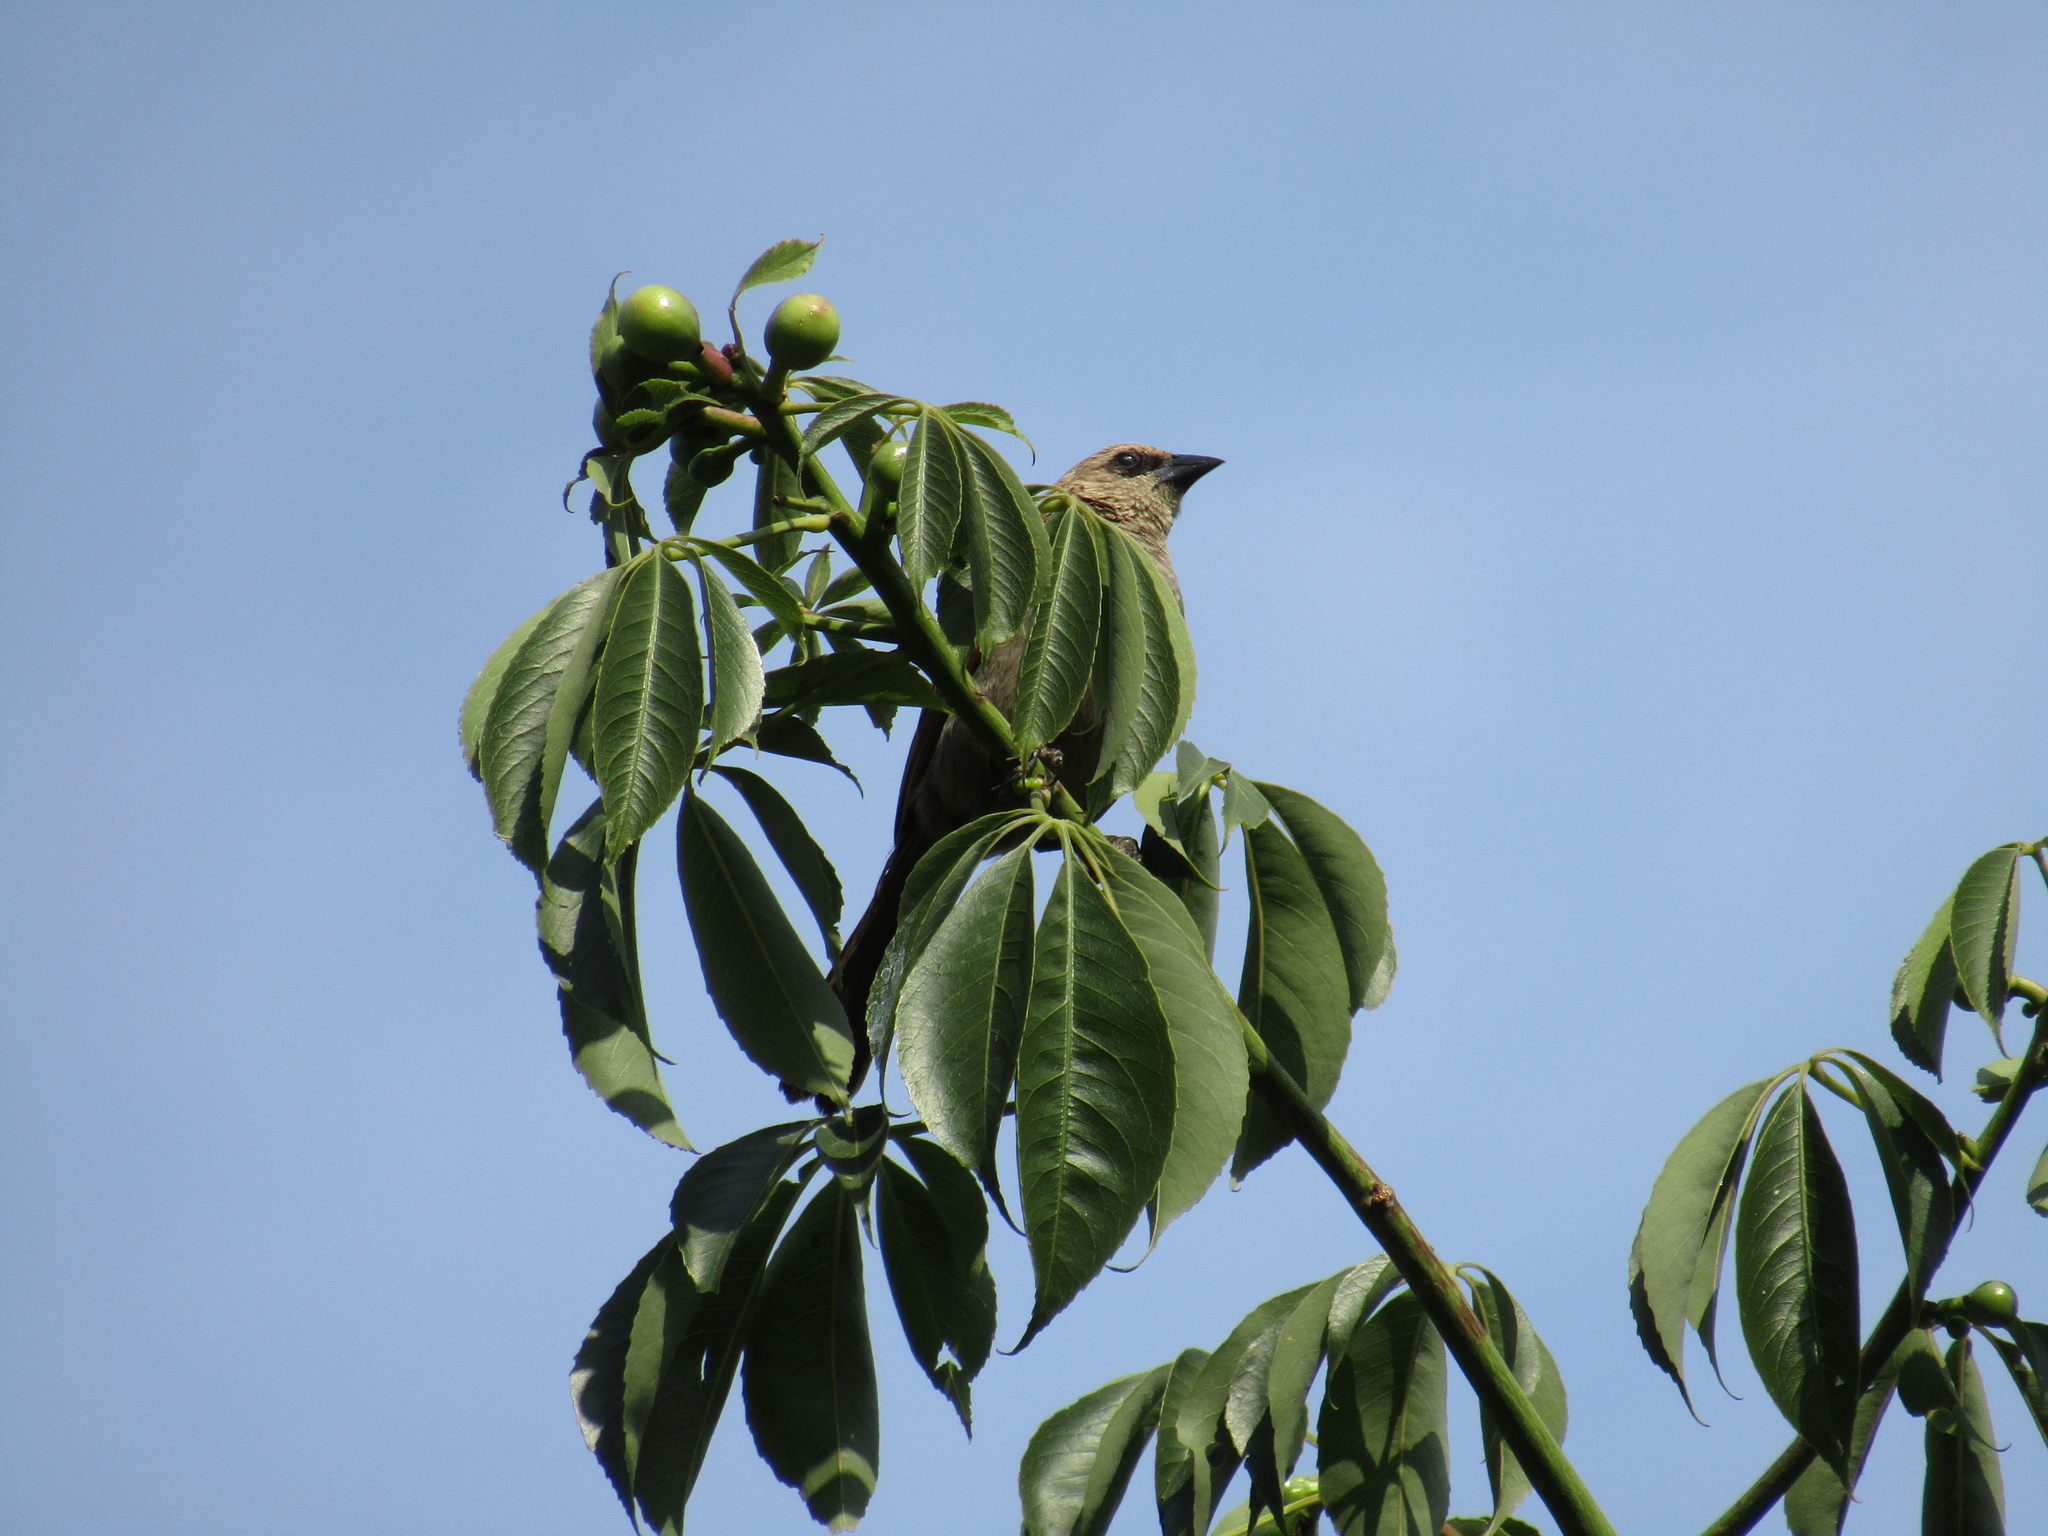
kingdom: Animalia
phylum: Chordata
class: Aves
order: Passeriformes
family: Icteridae
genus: Agelaioides
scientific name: Agelaioides badius
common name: Baywing
